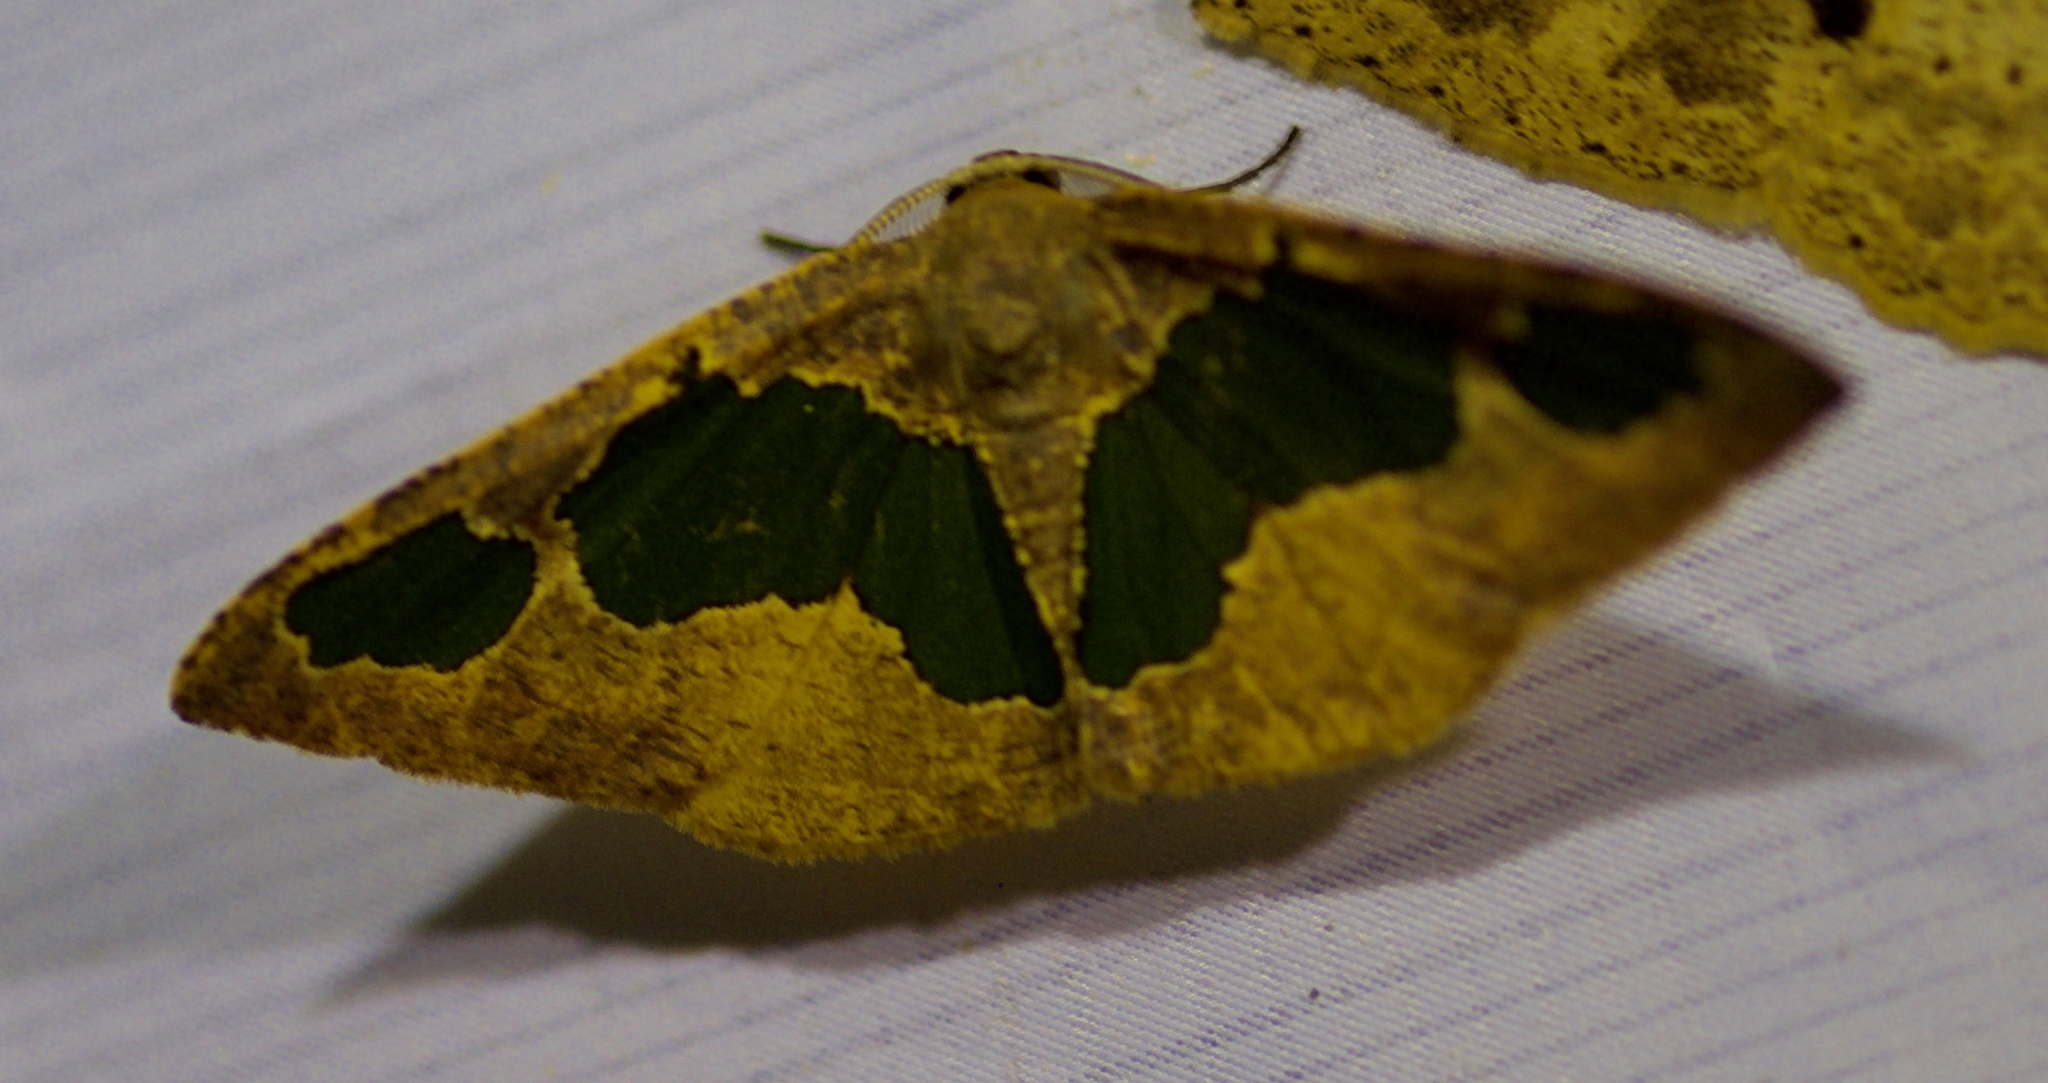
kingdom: Animalia
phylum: Arthropoda
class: Insecta
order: Lepidoptera
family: Geometridae
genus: Celenna
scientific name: Celenna festivaria
